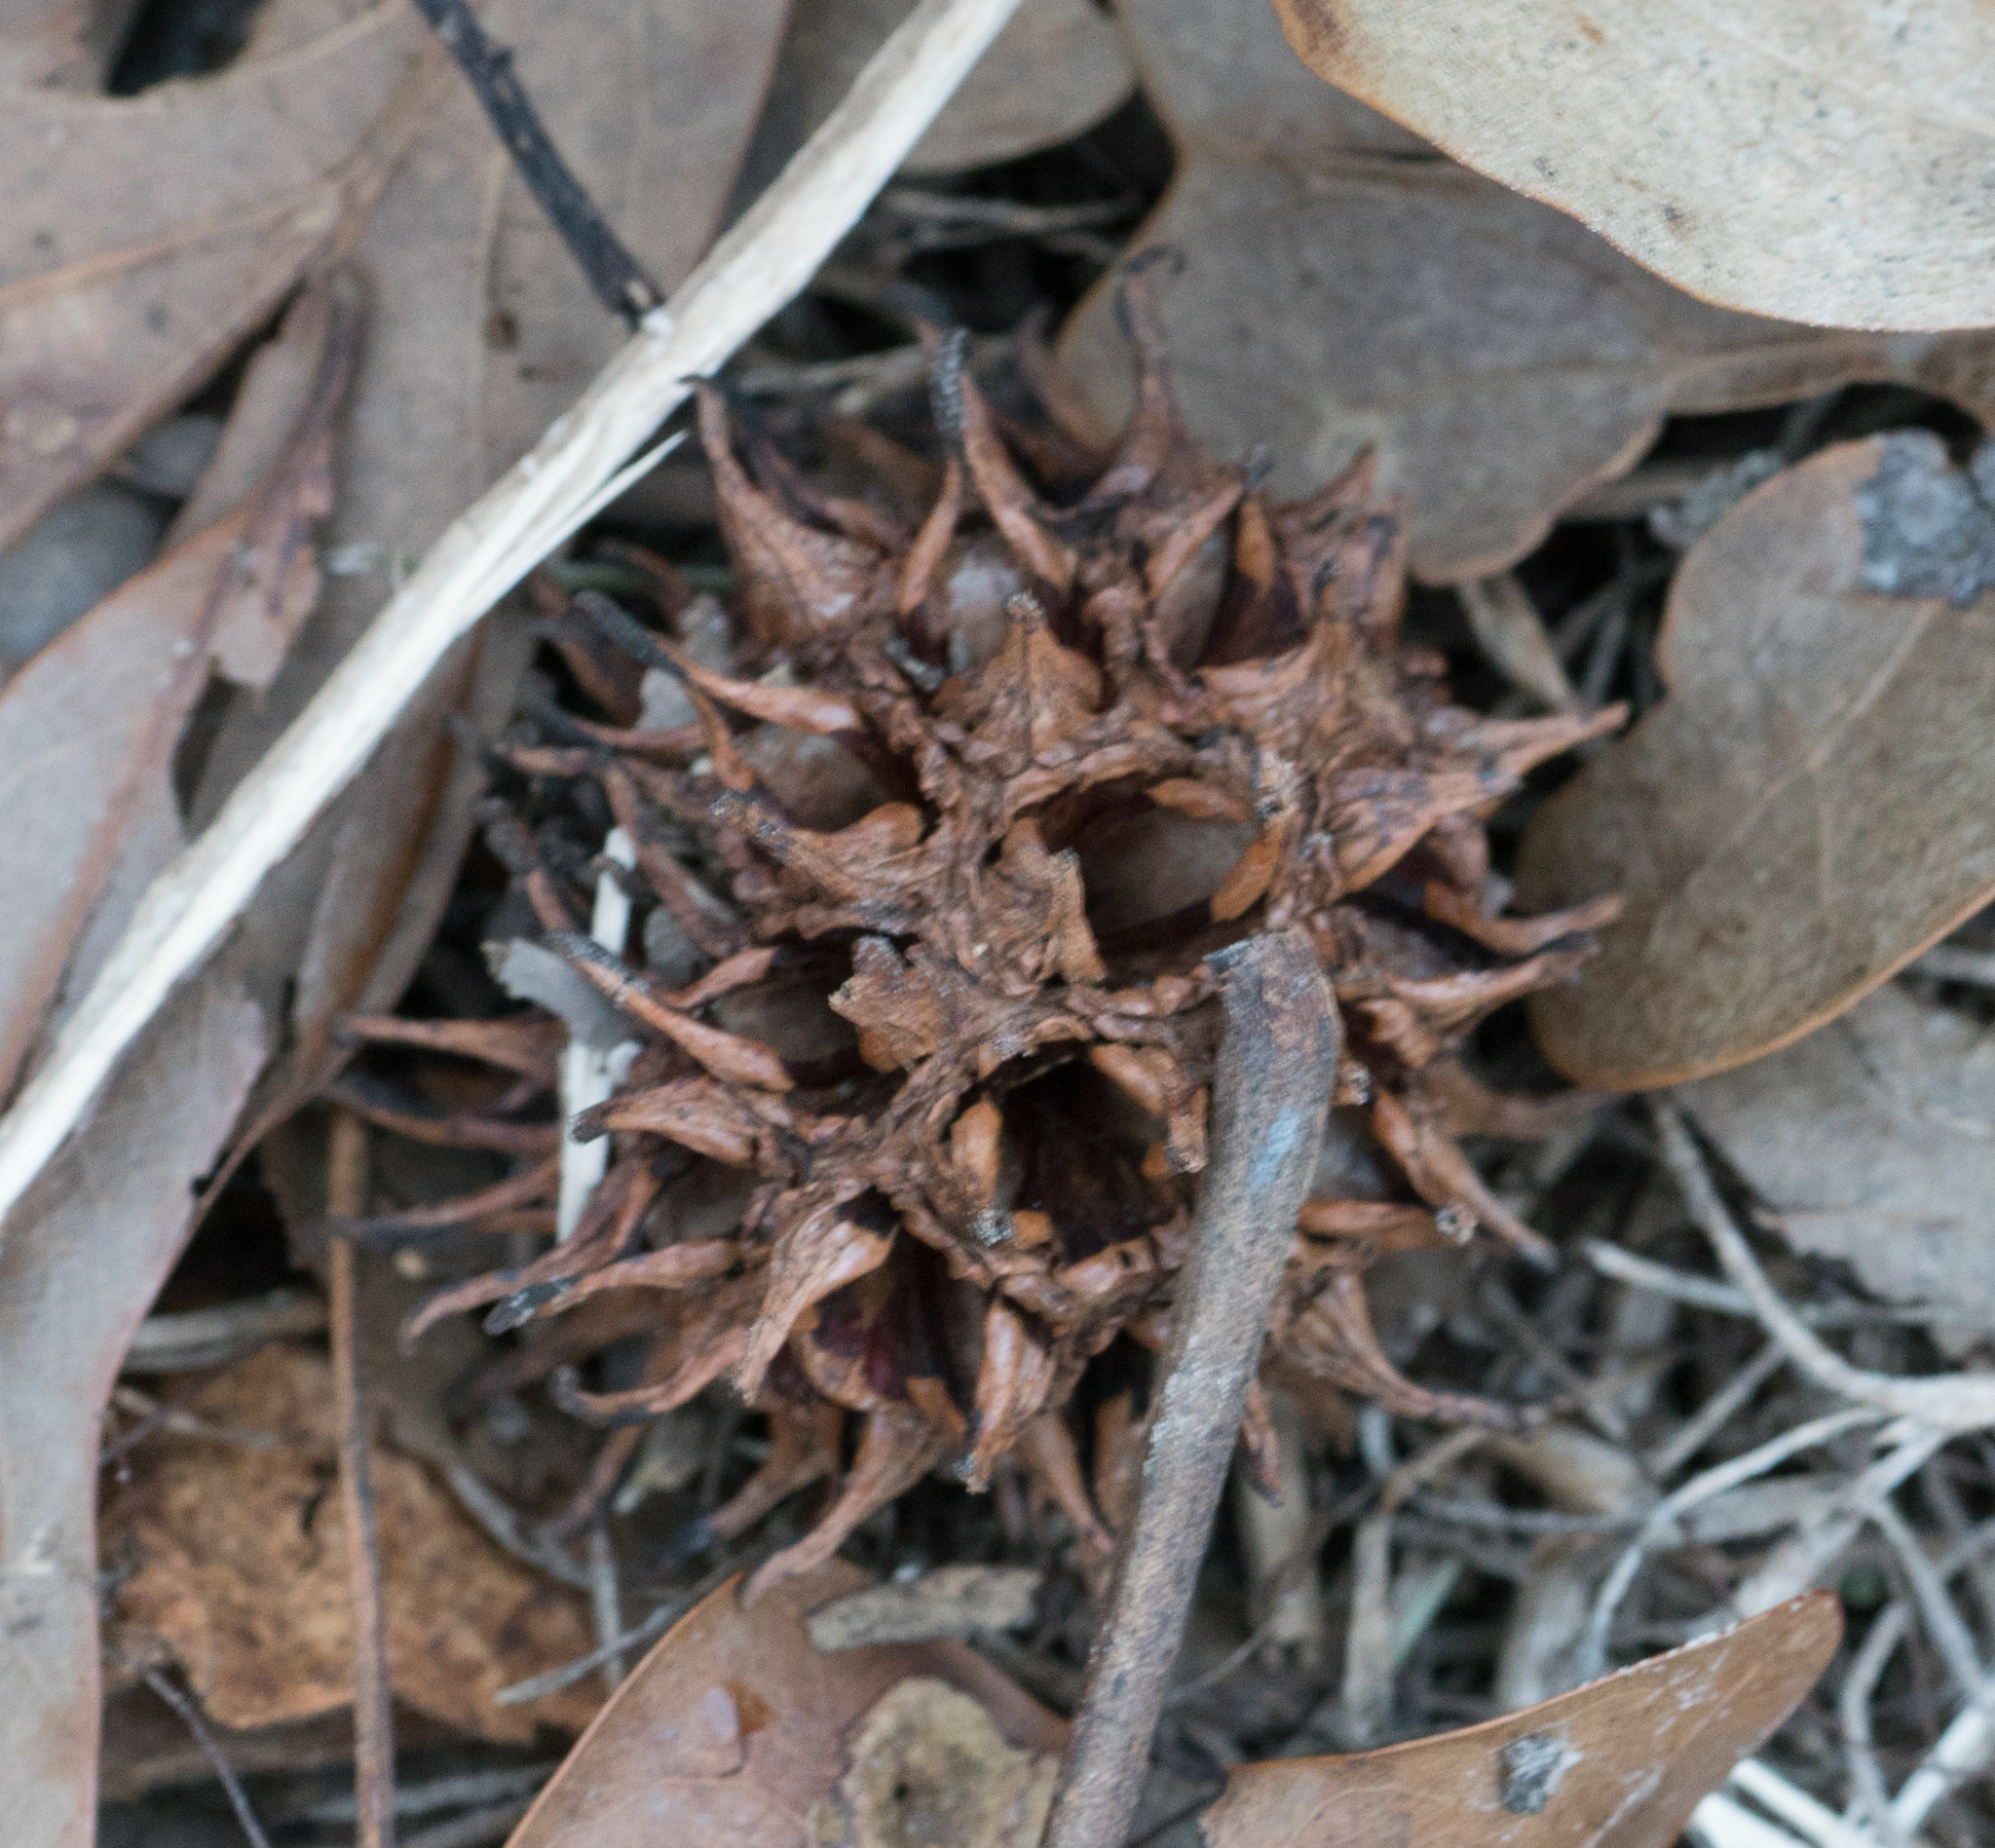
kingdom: Plantae
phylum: Tracheophyta
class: Magnoliopsida
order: Saxifragales
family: Altingiaceae
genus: Liquidambar
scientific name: Liquidambar styraciflua
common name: Sweet gum
